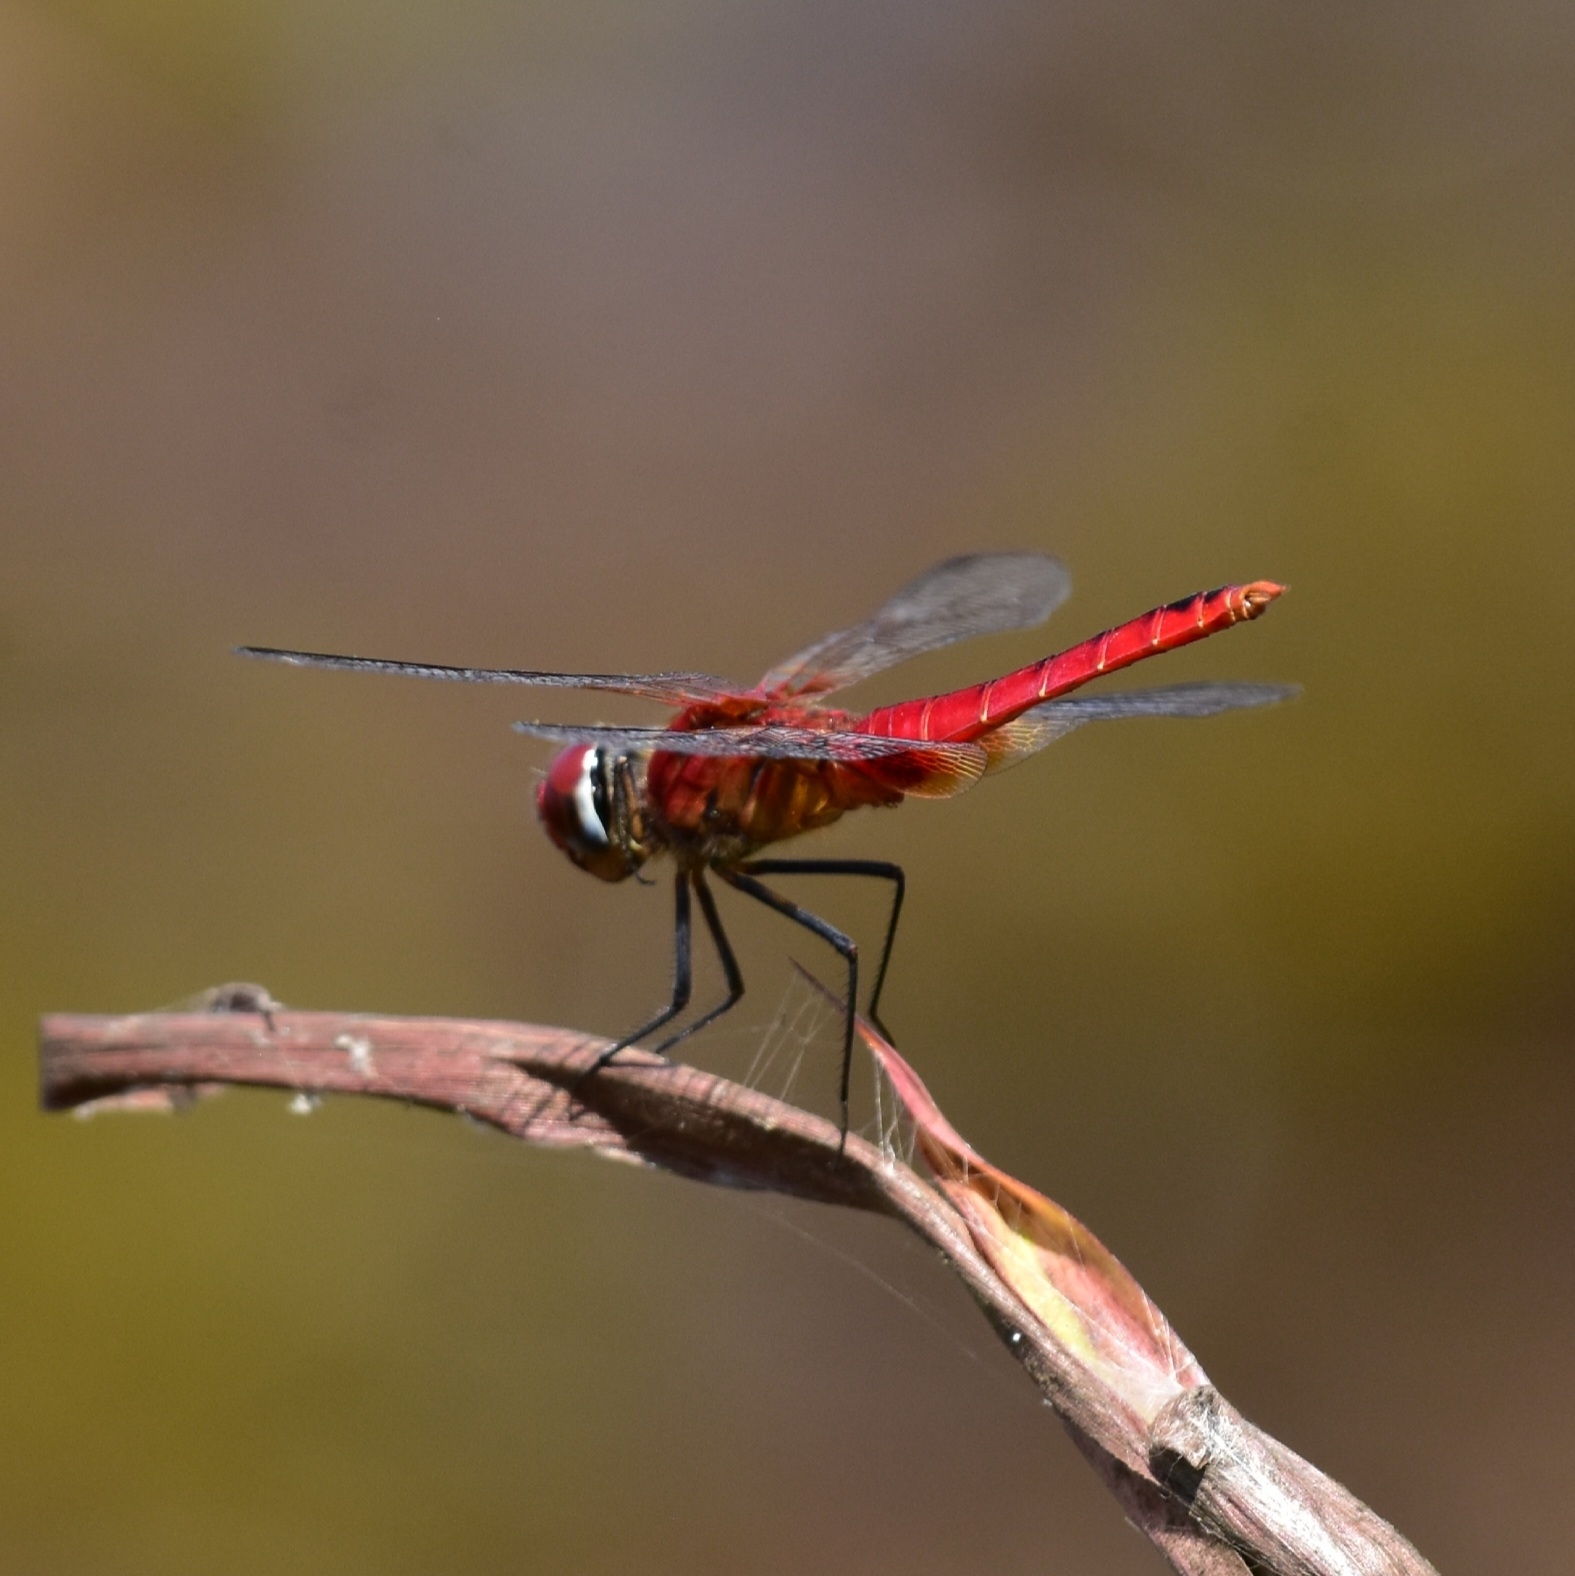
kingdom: Animalia
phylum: Arthropoda
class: Insecta
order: Odonata
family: Libellulidae
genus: Urothemis
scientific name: Urothemis signata
